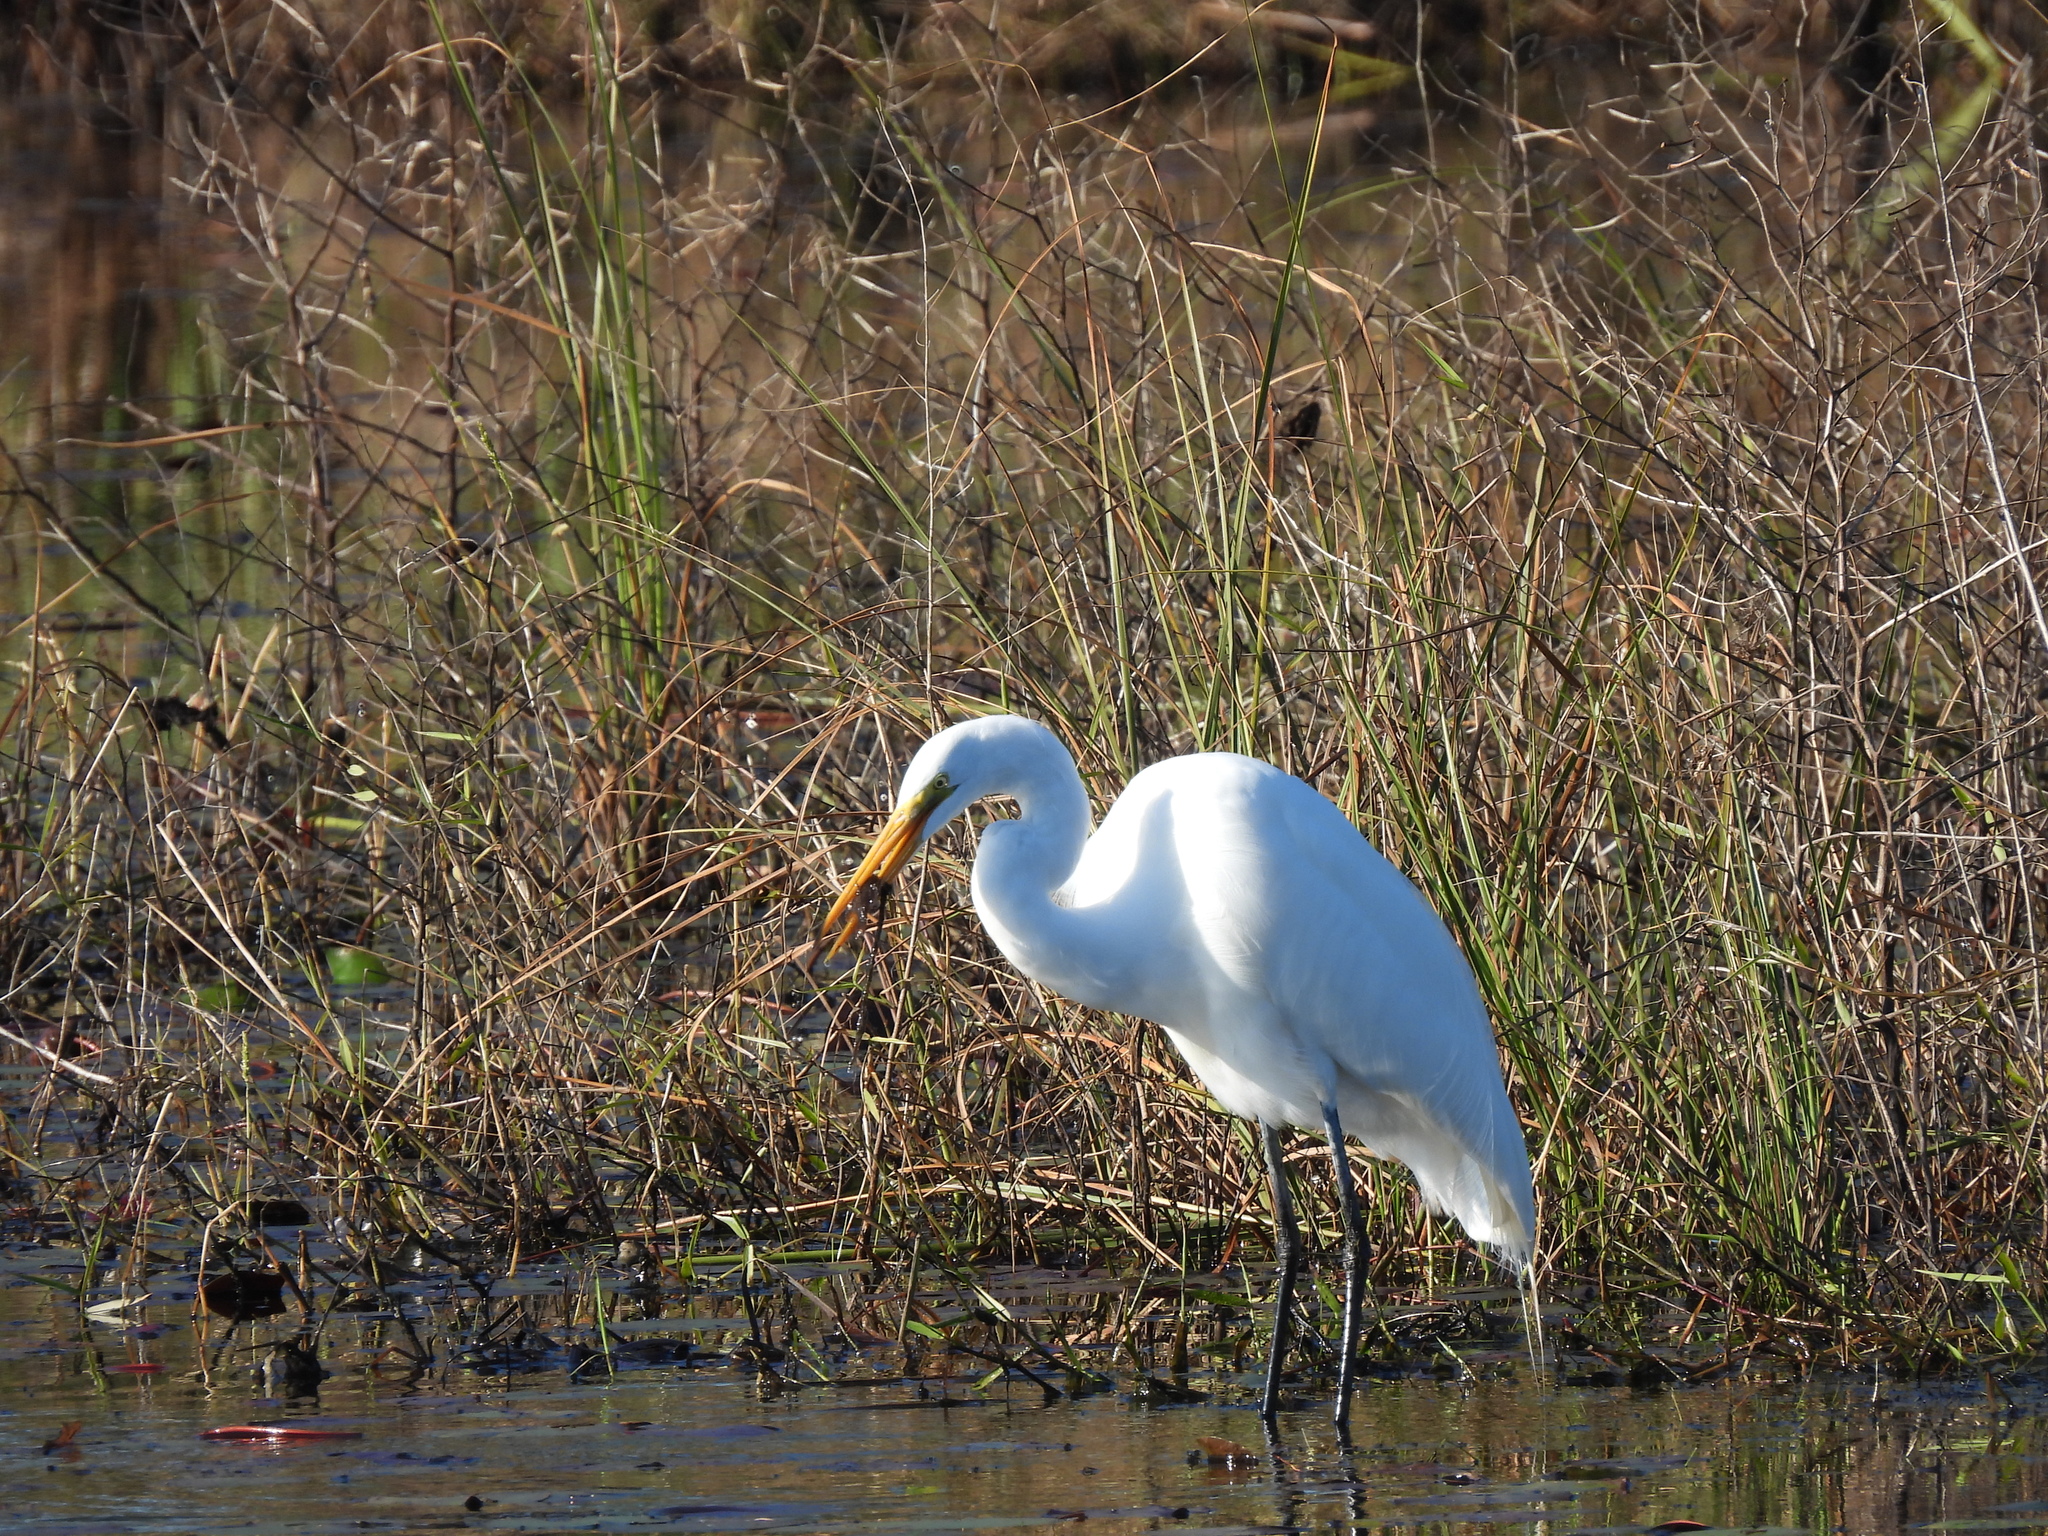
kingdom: Animalia
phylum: Chordata
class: Aves
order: Pelecaniformes
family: Ardeidae
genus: Ardea
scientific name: Ardea alba
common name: Great egret
